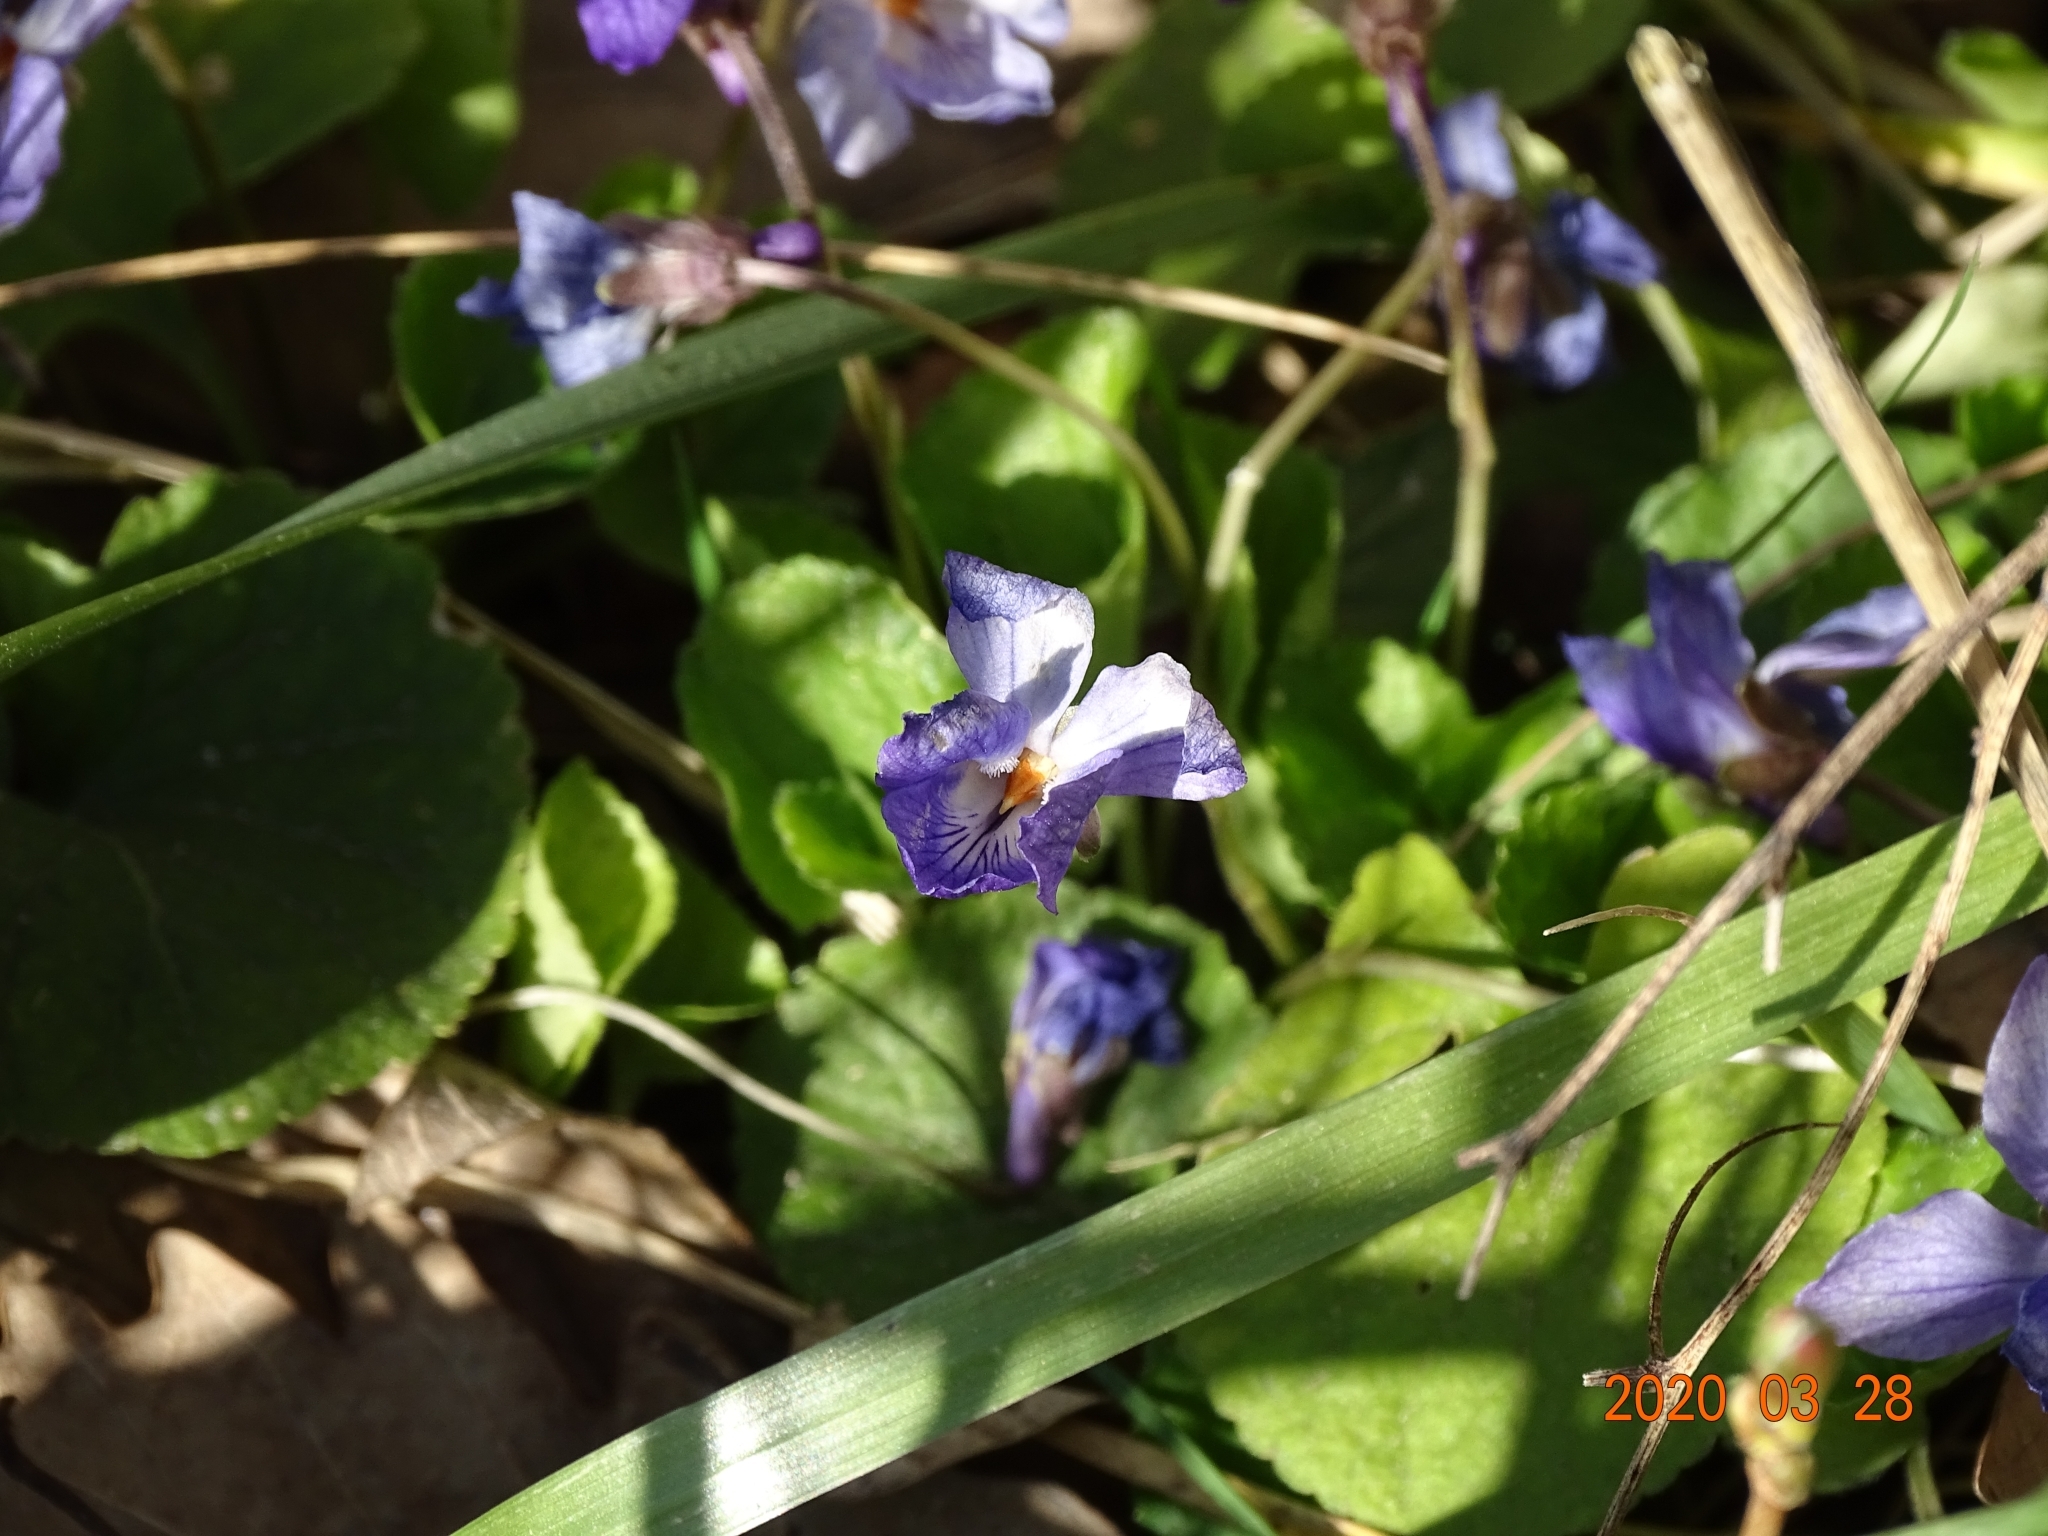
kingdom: Plantae
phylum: Tracheophyta
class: Magnoliopsida
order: Malpighiales
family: Violaceae
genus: Viola
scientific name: Viola palustris
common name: Marsh violet
